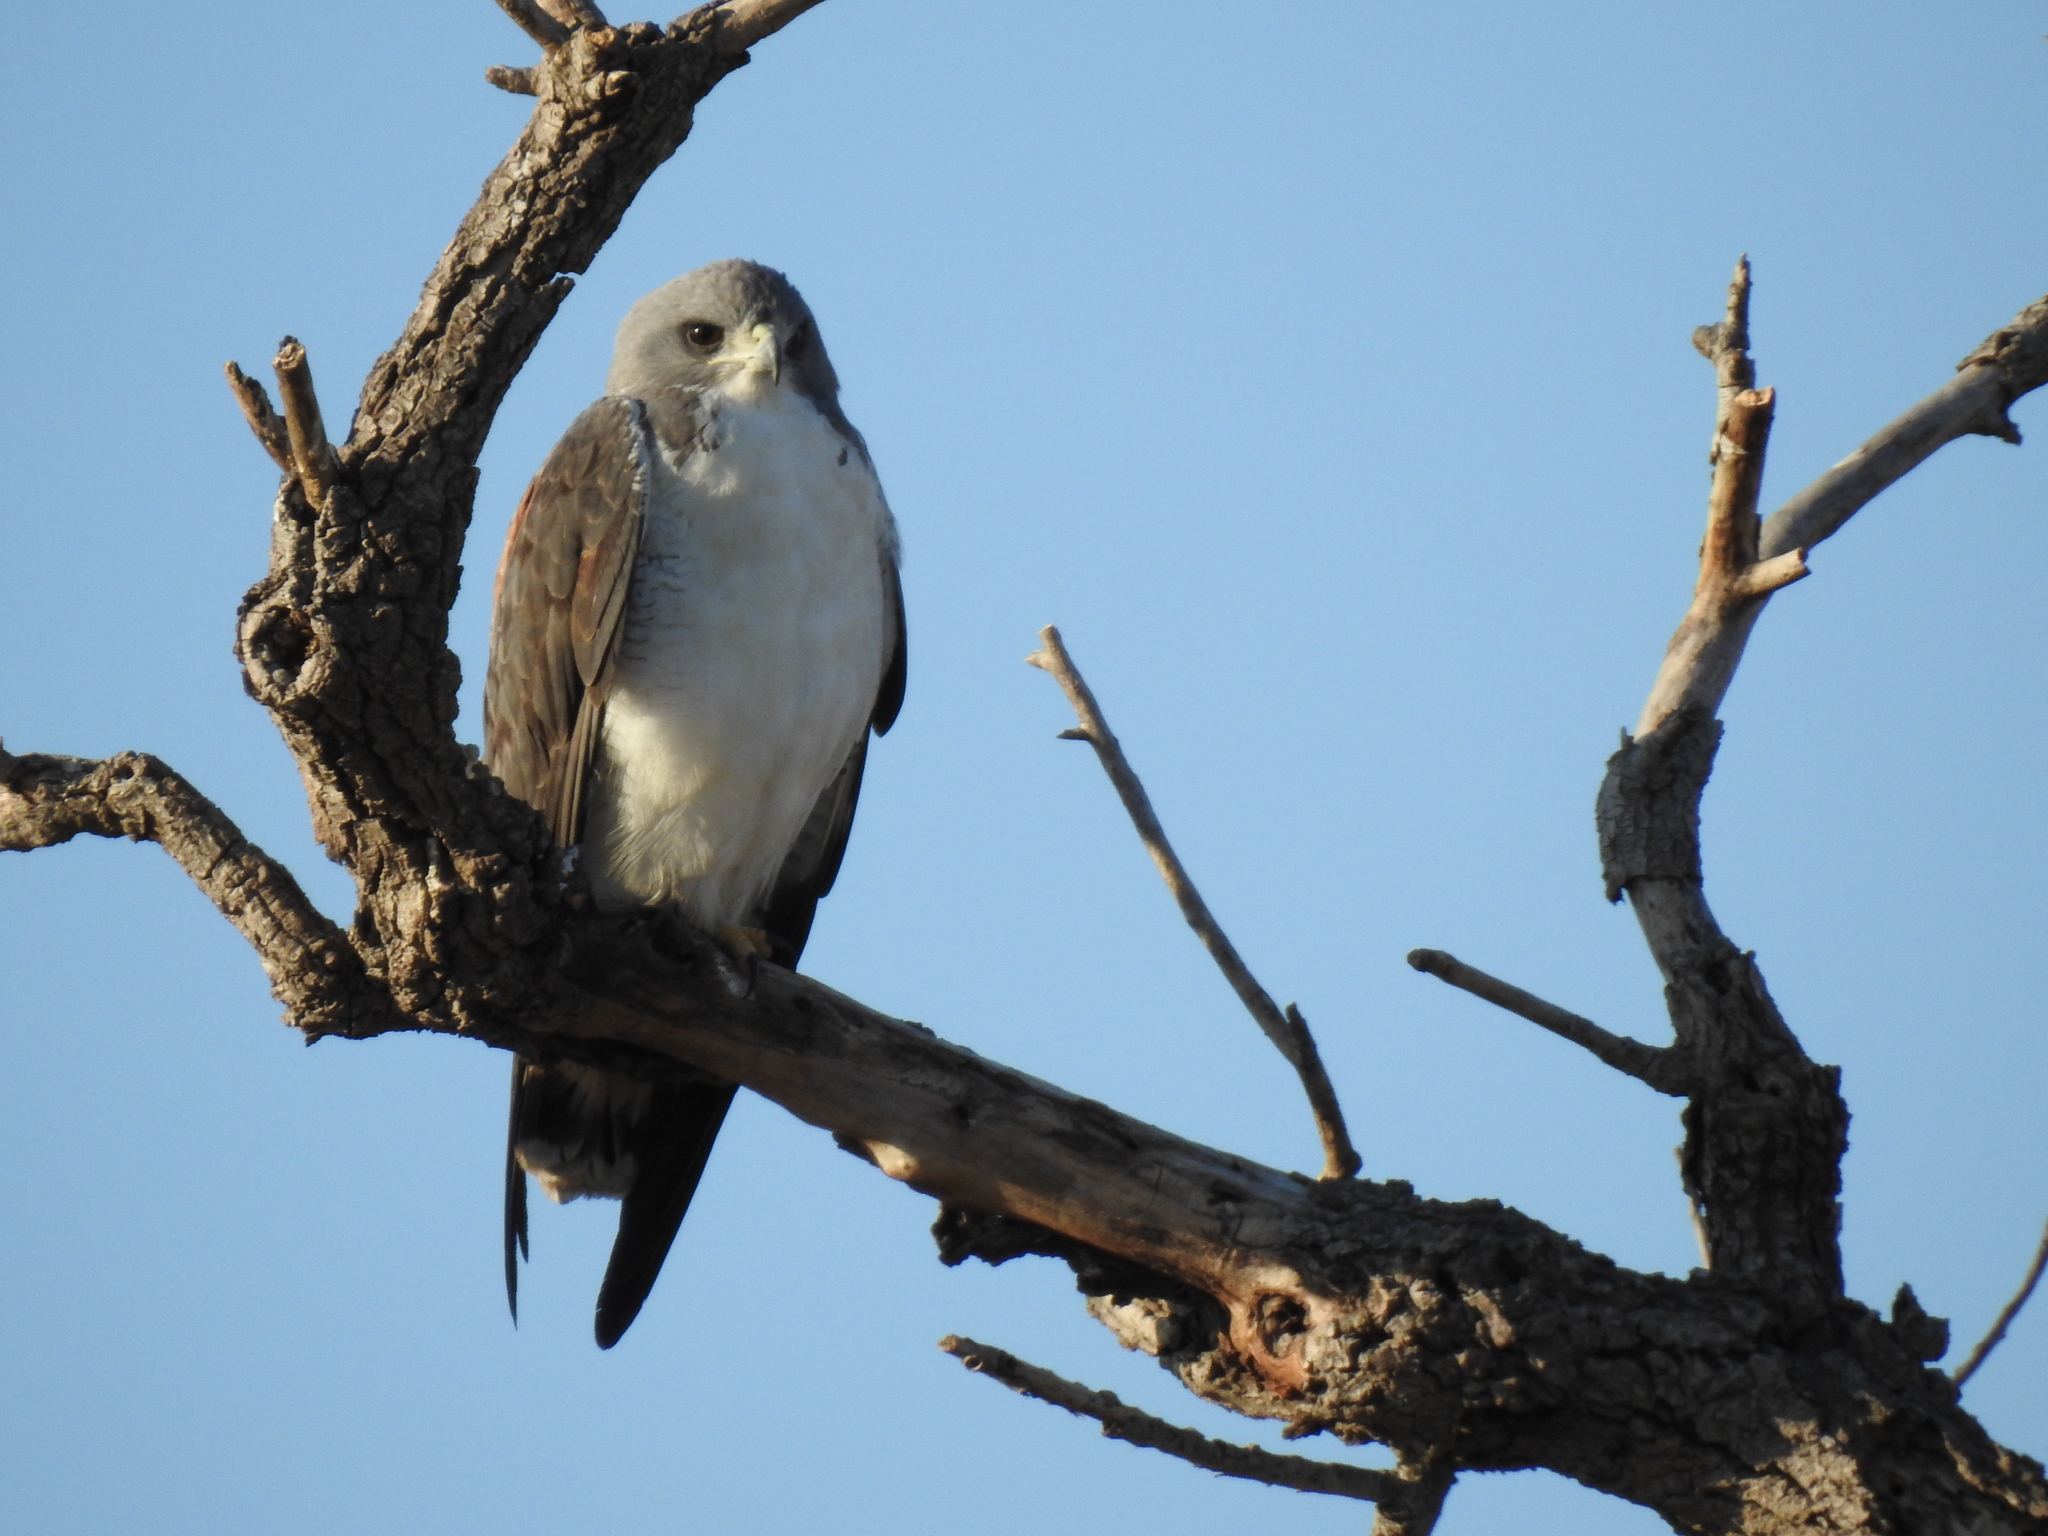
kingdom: Animalia
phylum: Chordata
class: Aves
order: Accipitriformes
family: Accipitridae
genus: Buteo
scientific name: Buteo albicaudatus
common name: White-tailed hawk
